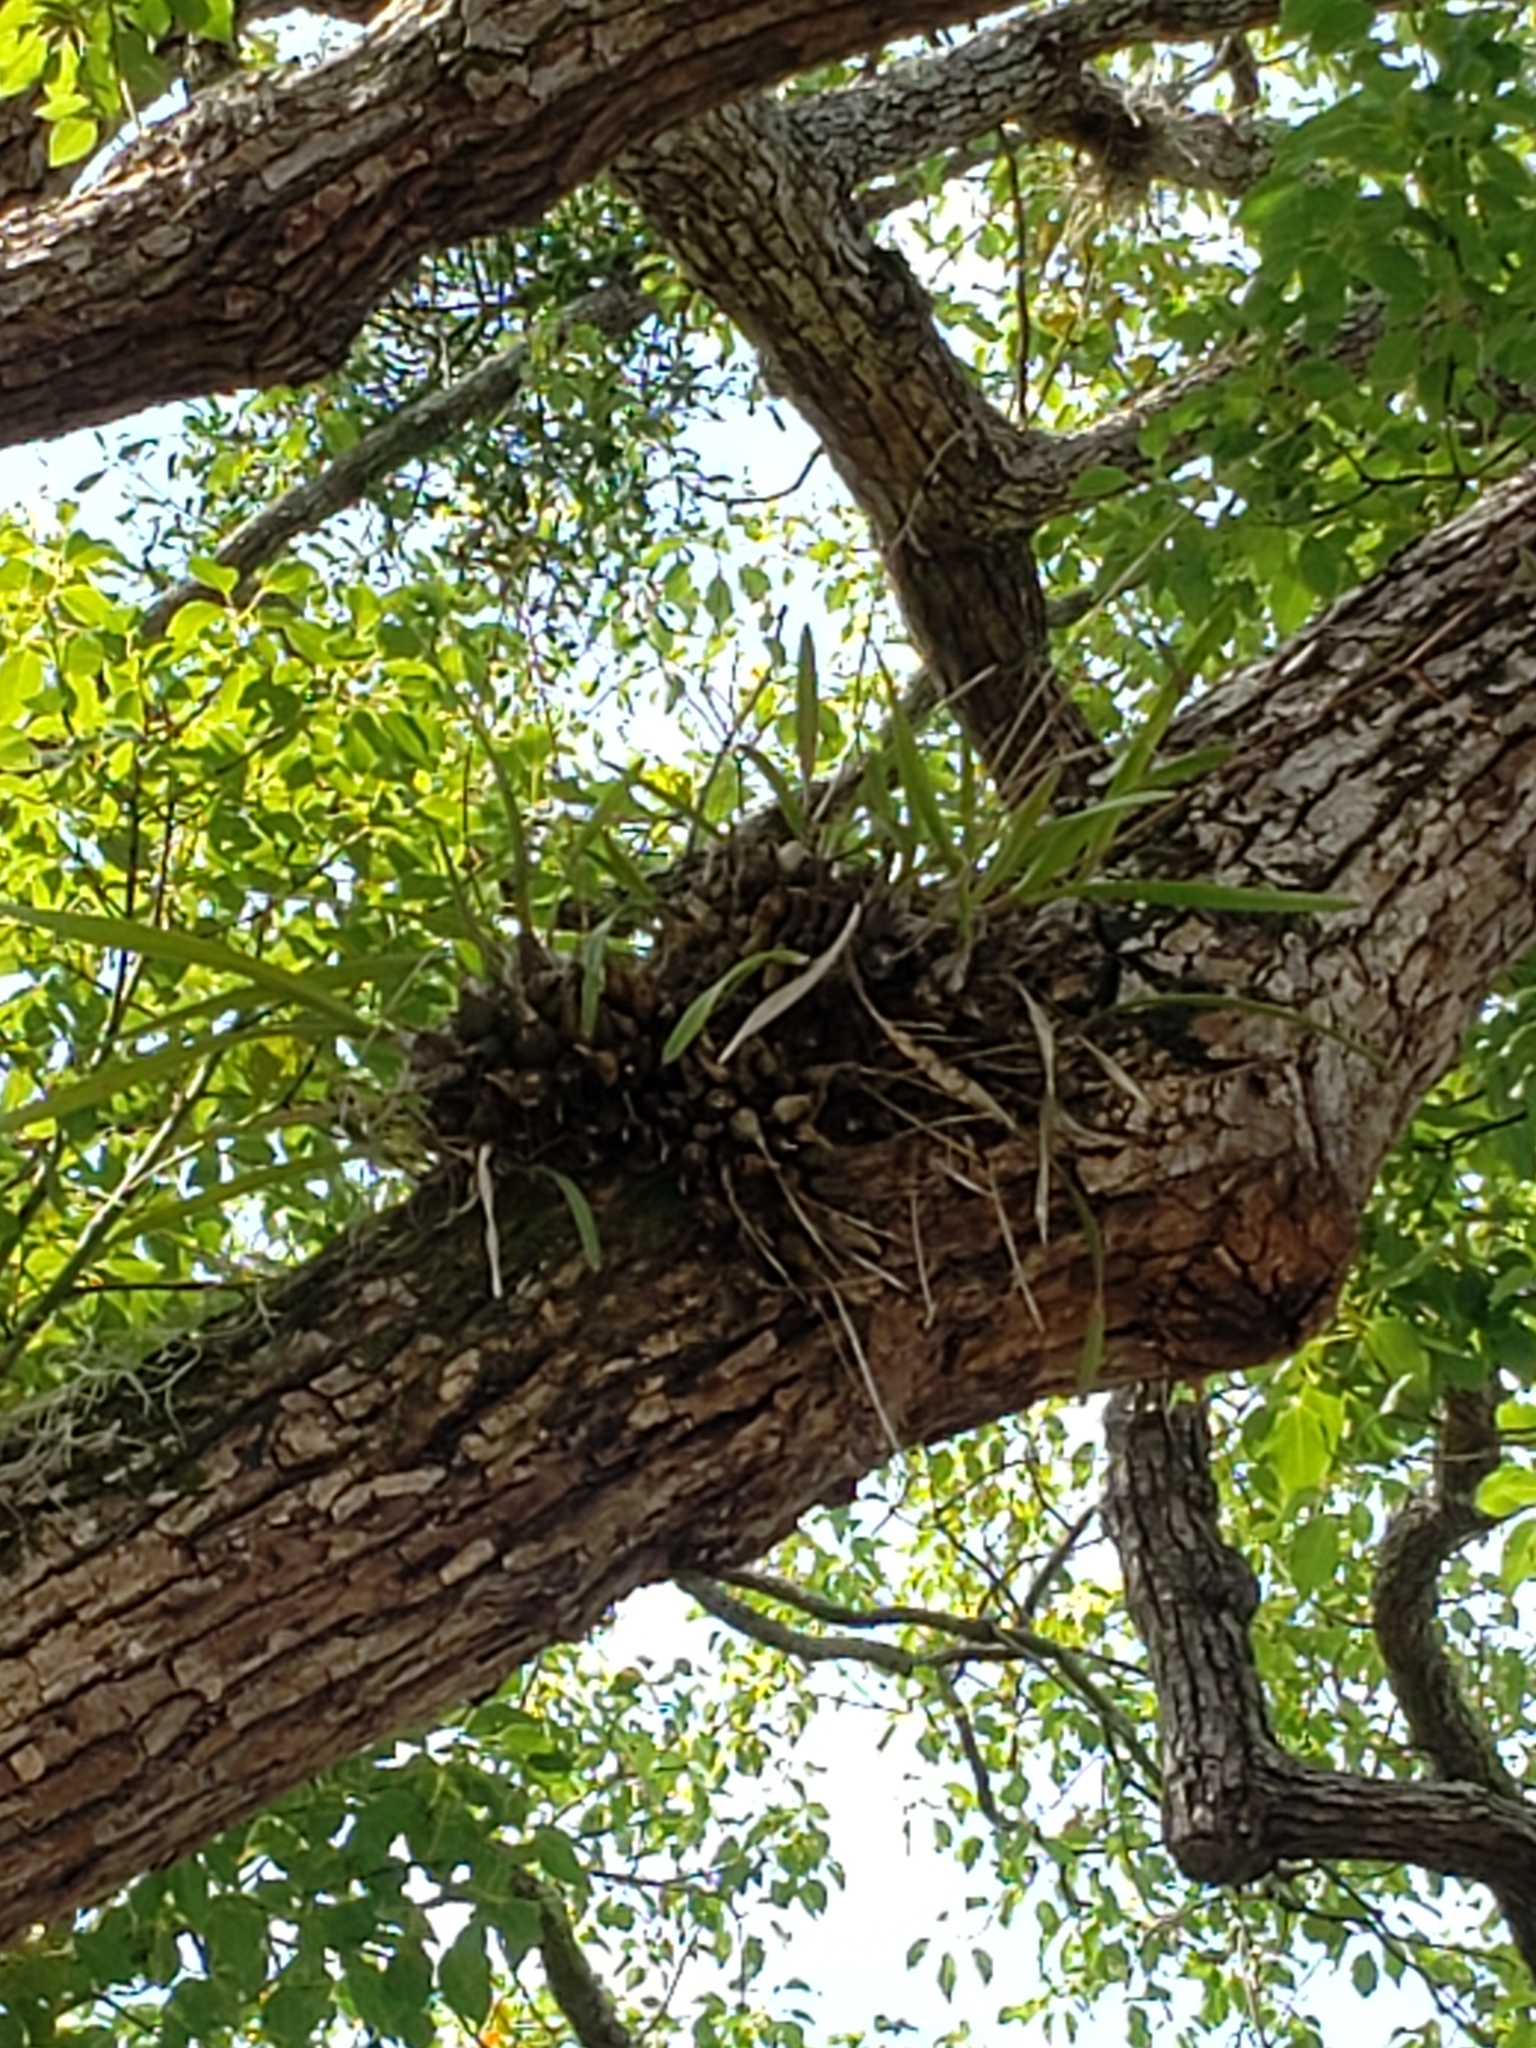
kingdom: Plantae
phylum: Tracheophyta
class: Liliopsida
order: Asparagales
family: Orchidaceae
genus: Encyclia
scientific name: Encyclia tampensis
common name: Florida butterfly orchid
